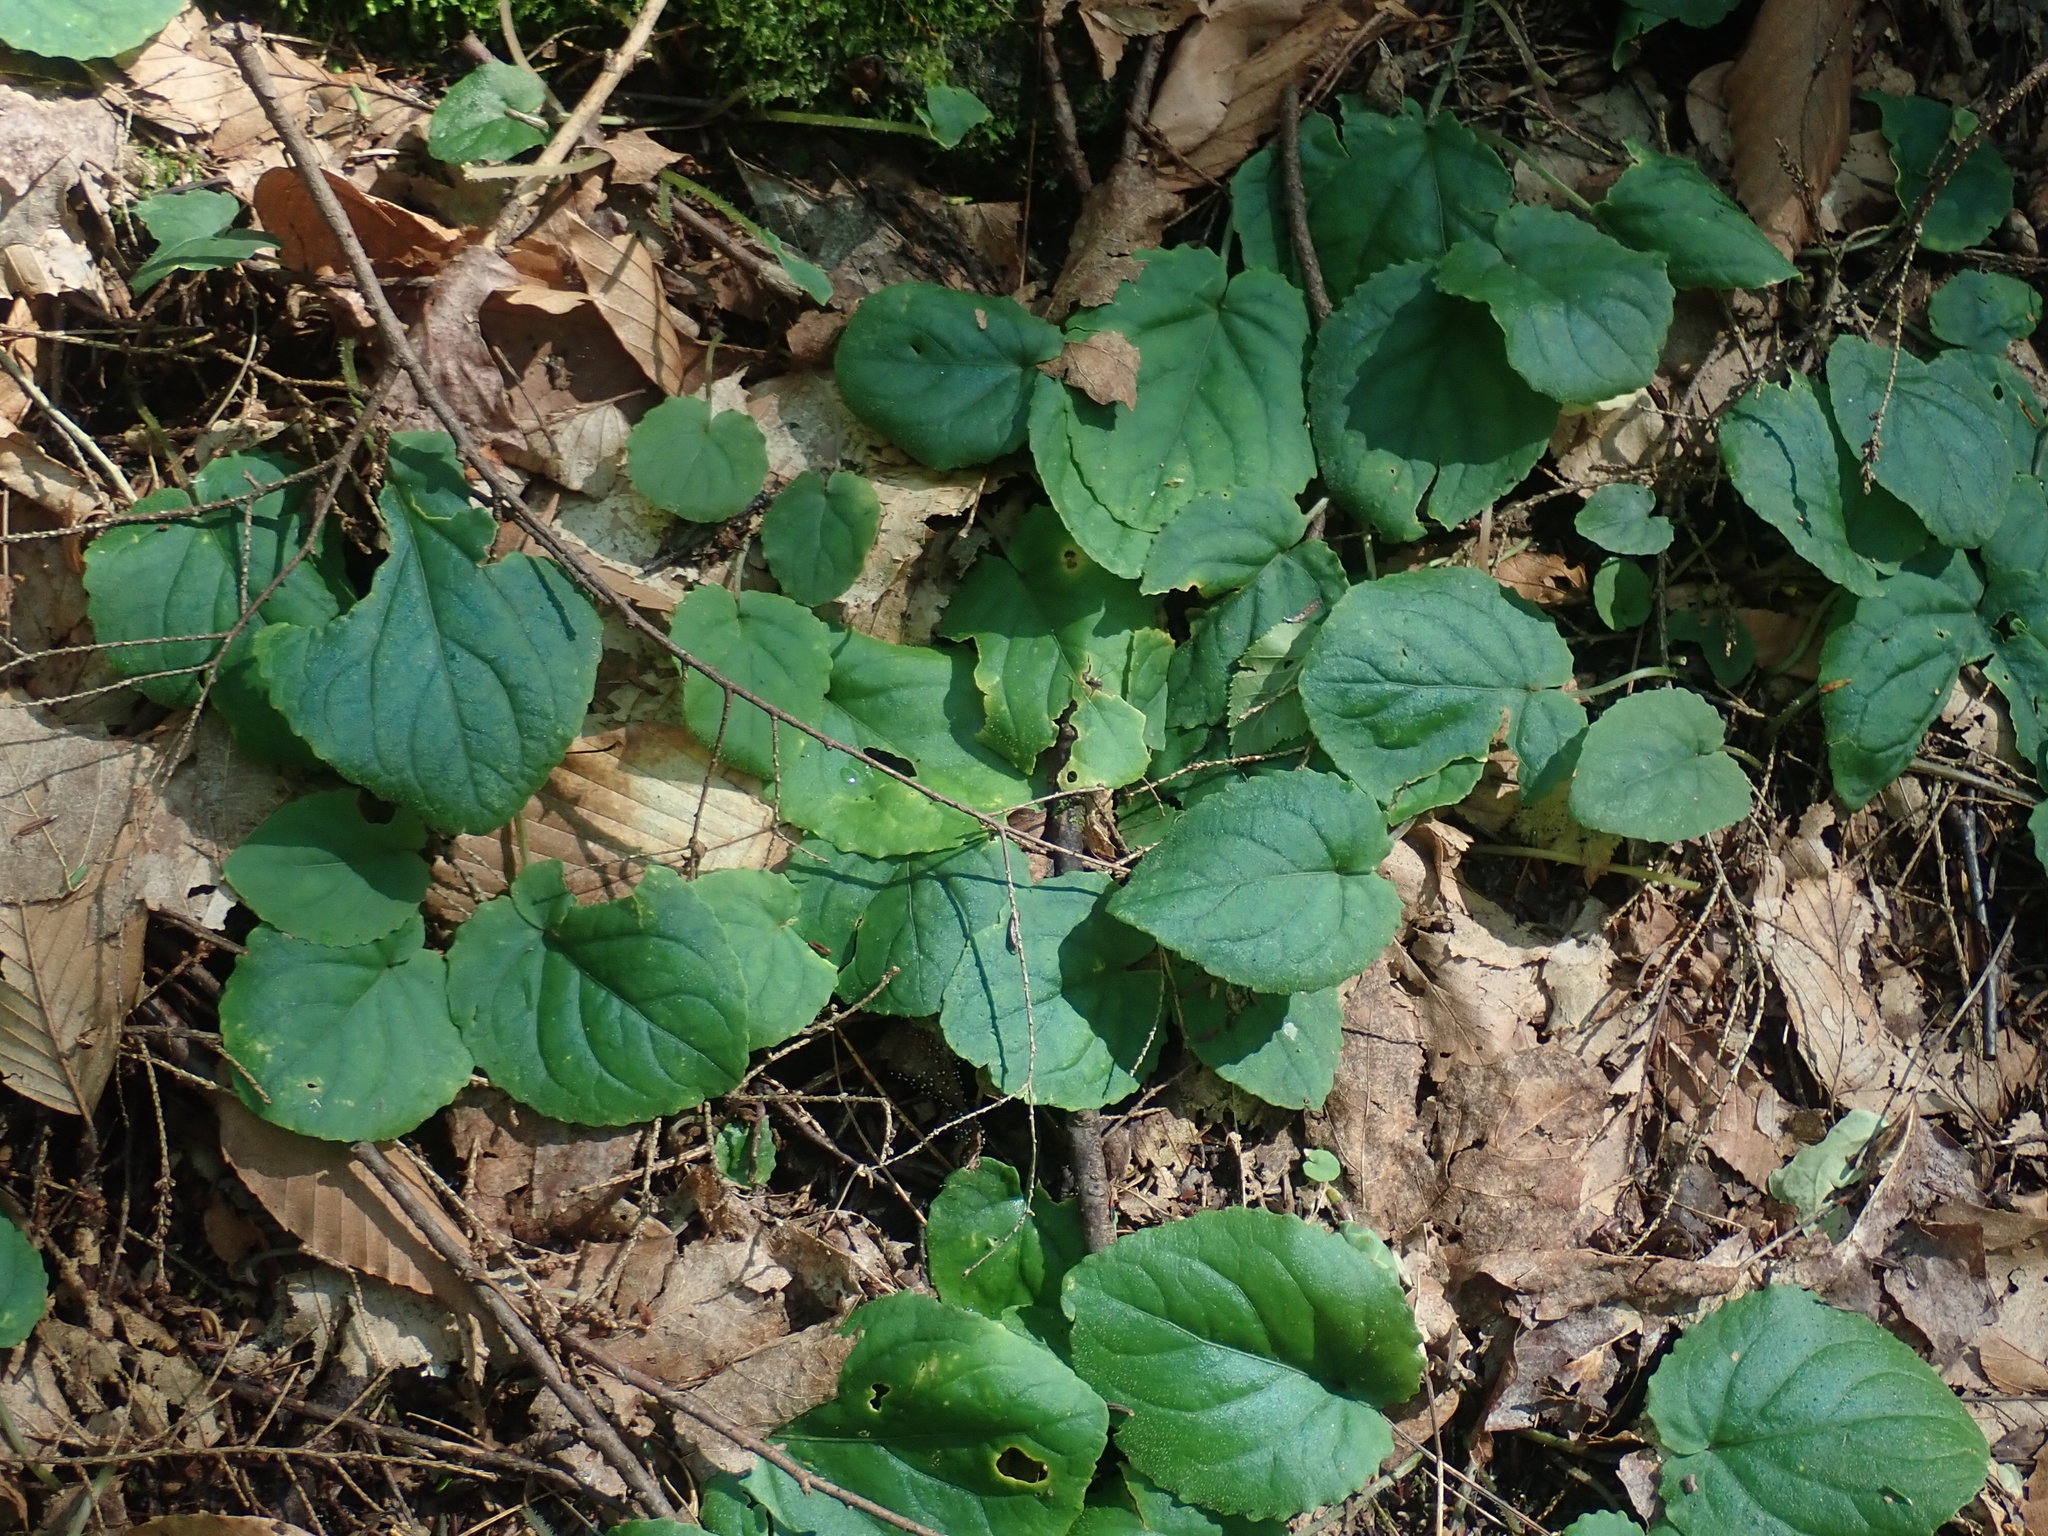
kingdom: Plantae
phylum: Tracheophyta
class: Magnoliopsida
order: Malpighiales
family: Violaceae
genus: Viola
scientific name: Viola rotundifolia
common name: Early yellow violet
